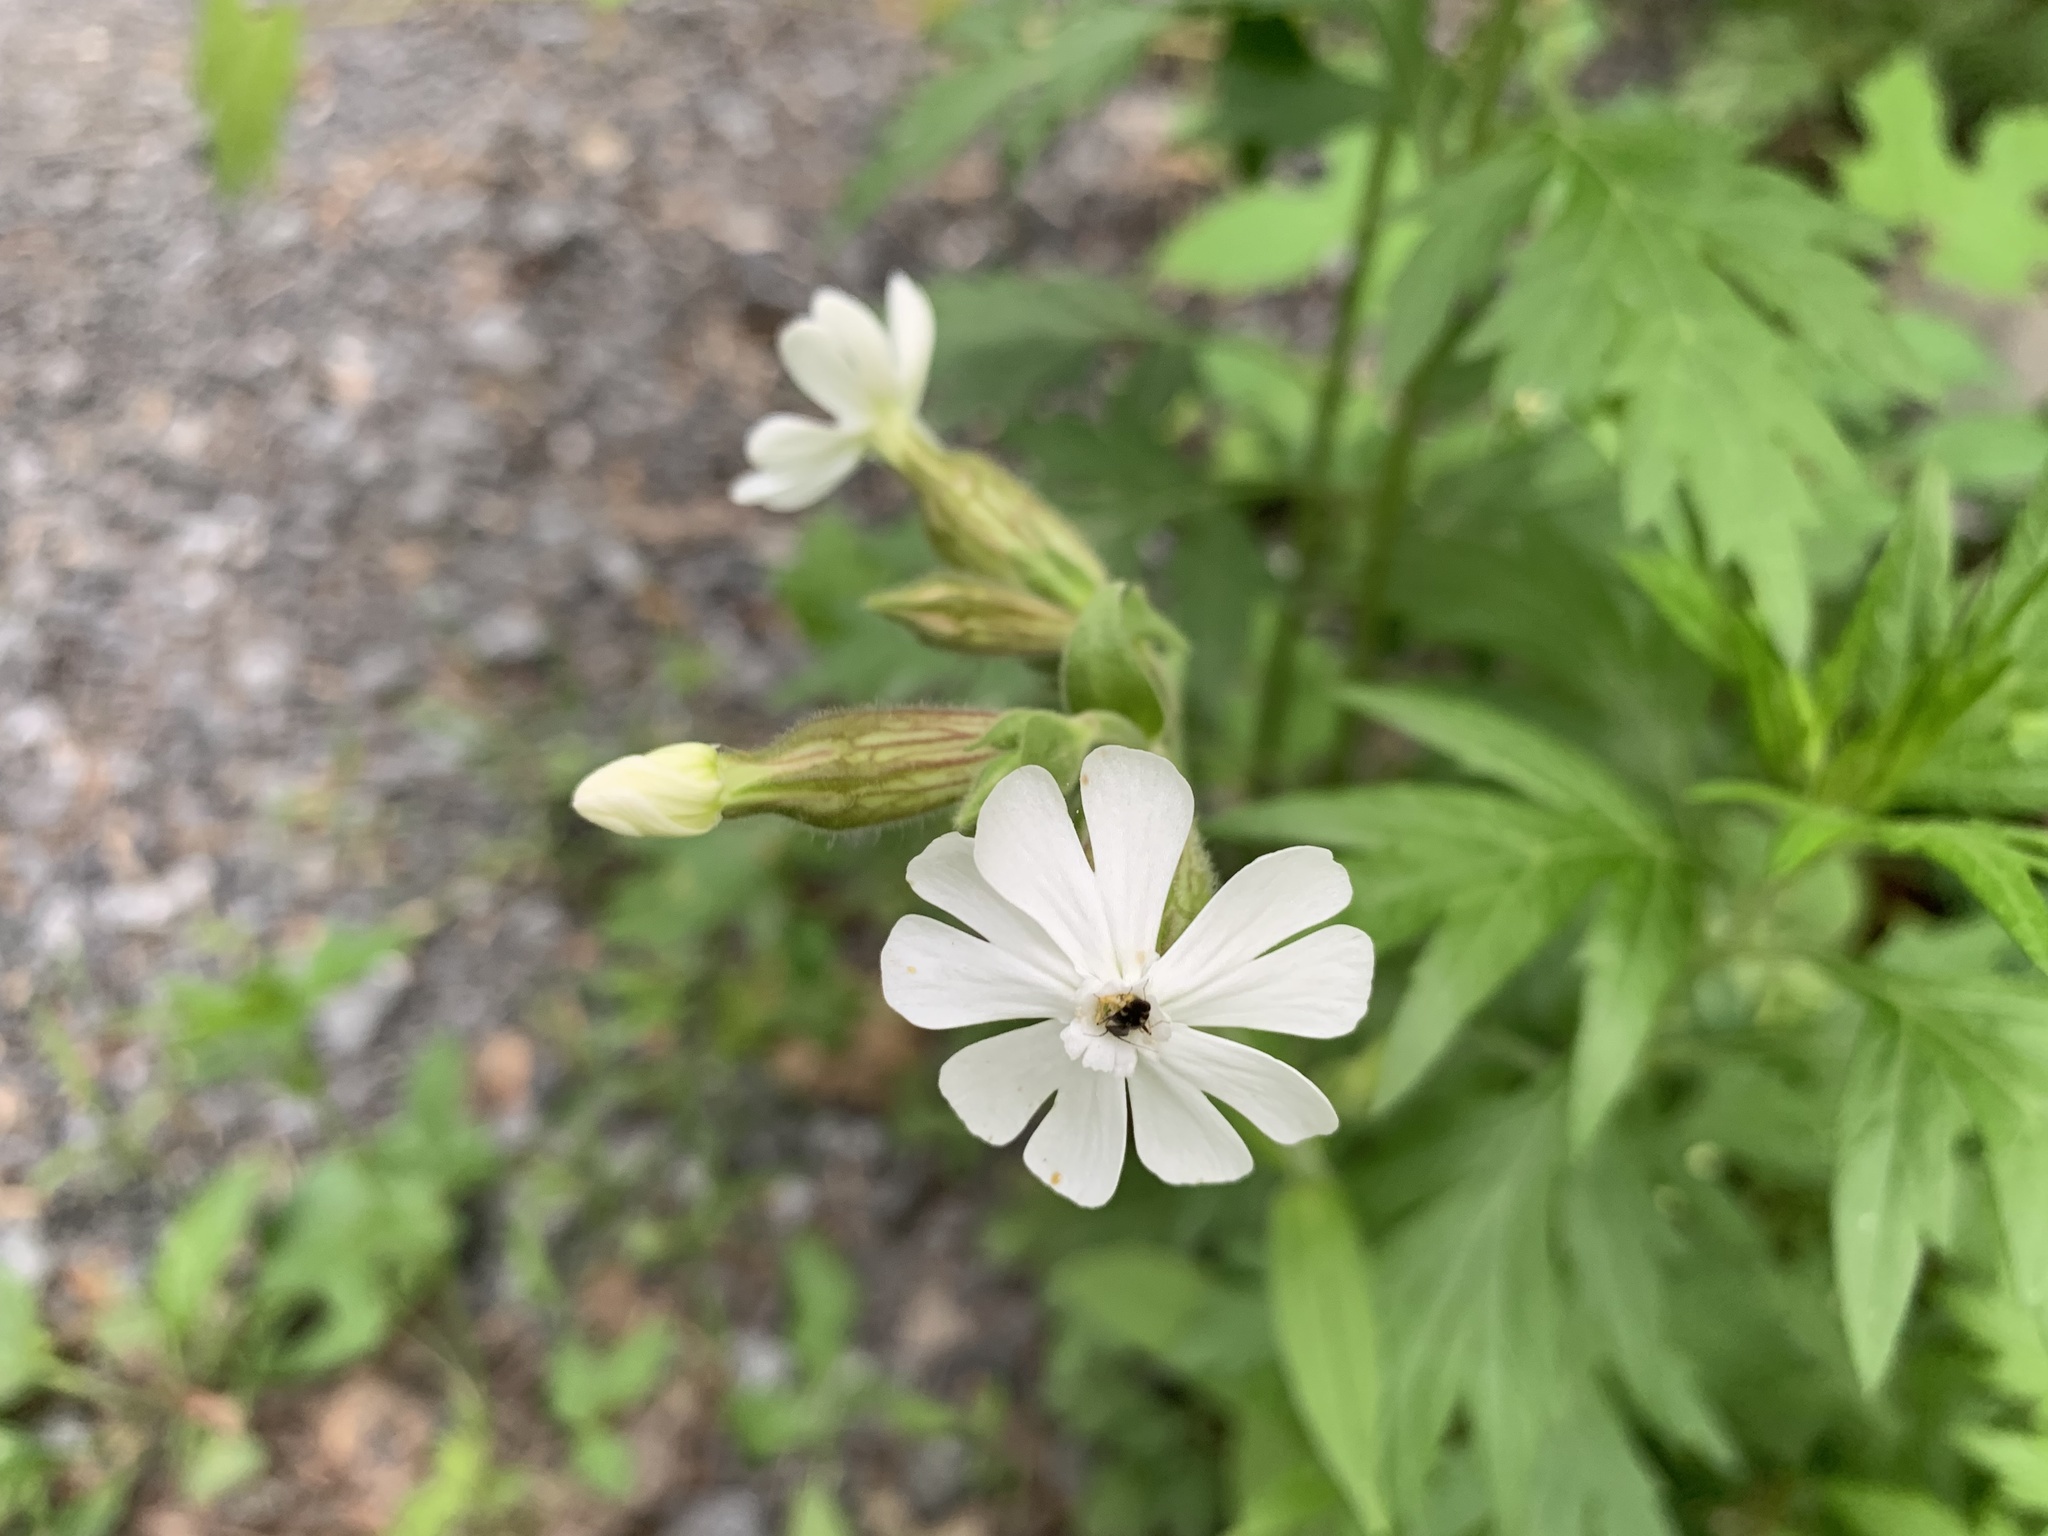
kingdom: Plantae
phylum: Tracheophyta
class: Magnoliopsida
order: Caryophyllales
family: Caryophyllaceae
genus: Silene
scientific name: Silene latifolia
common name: White campion
